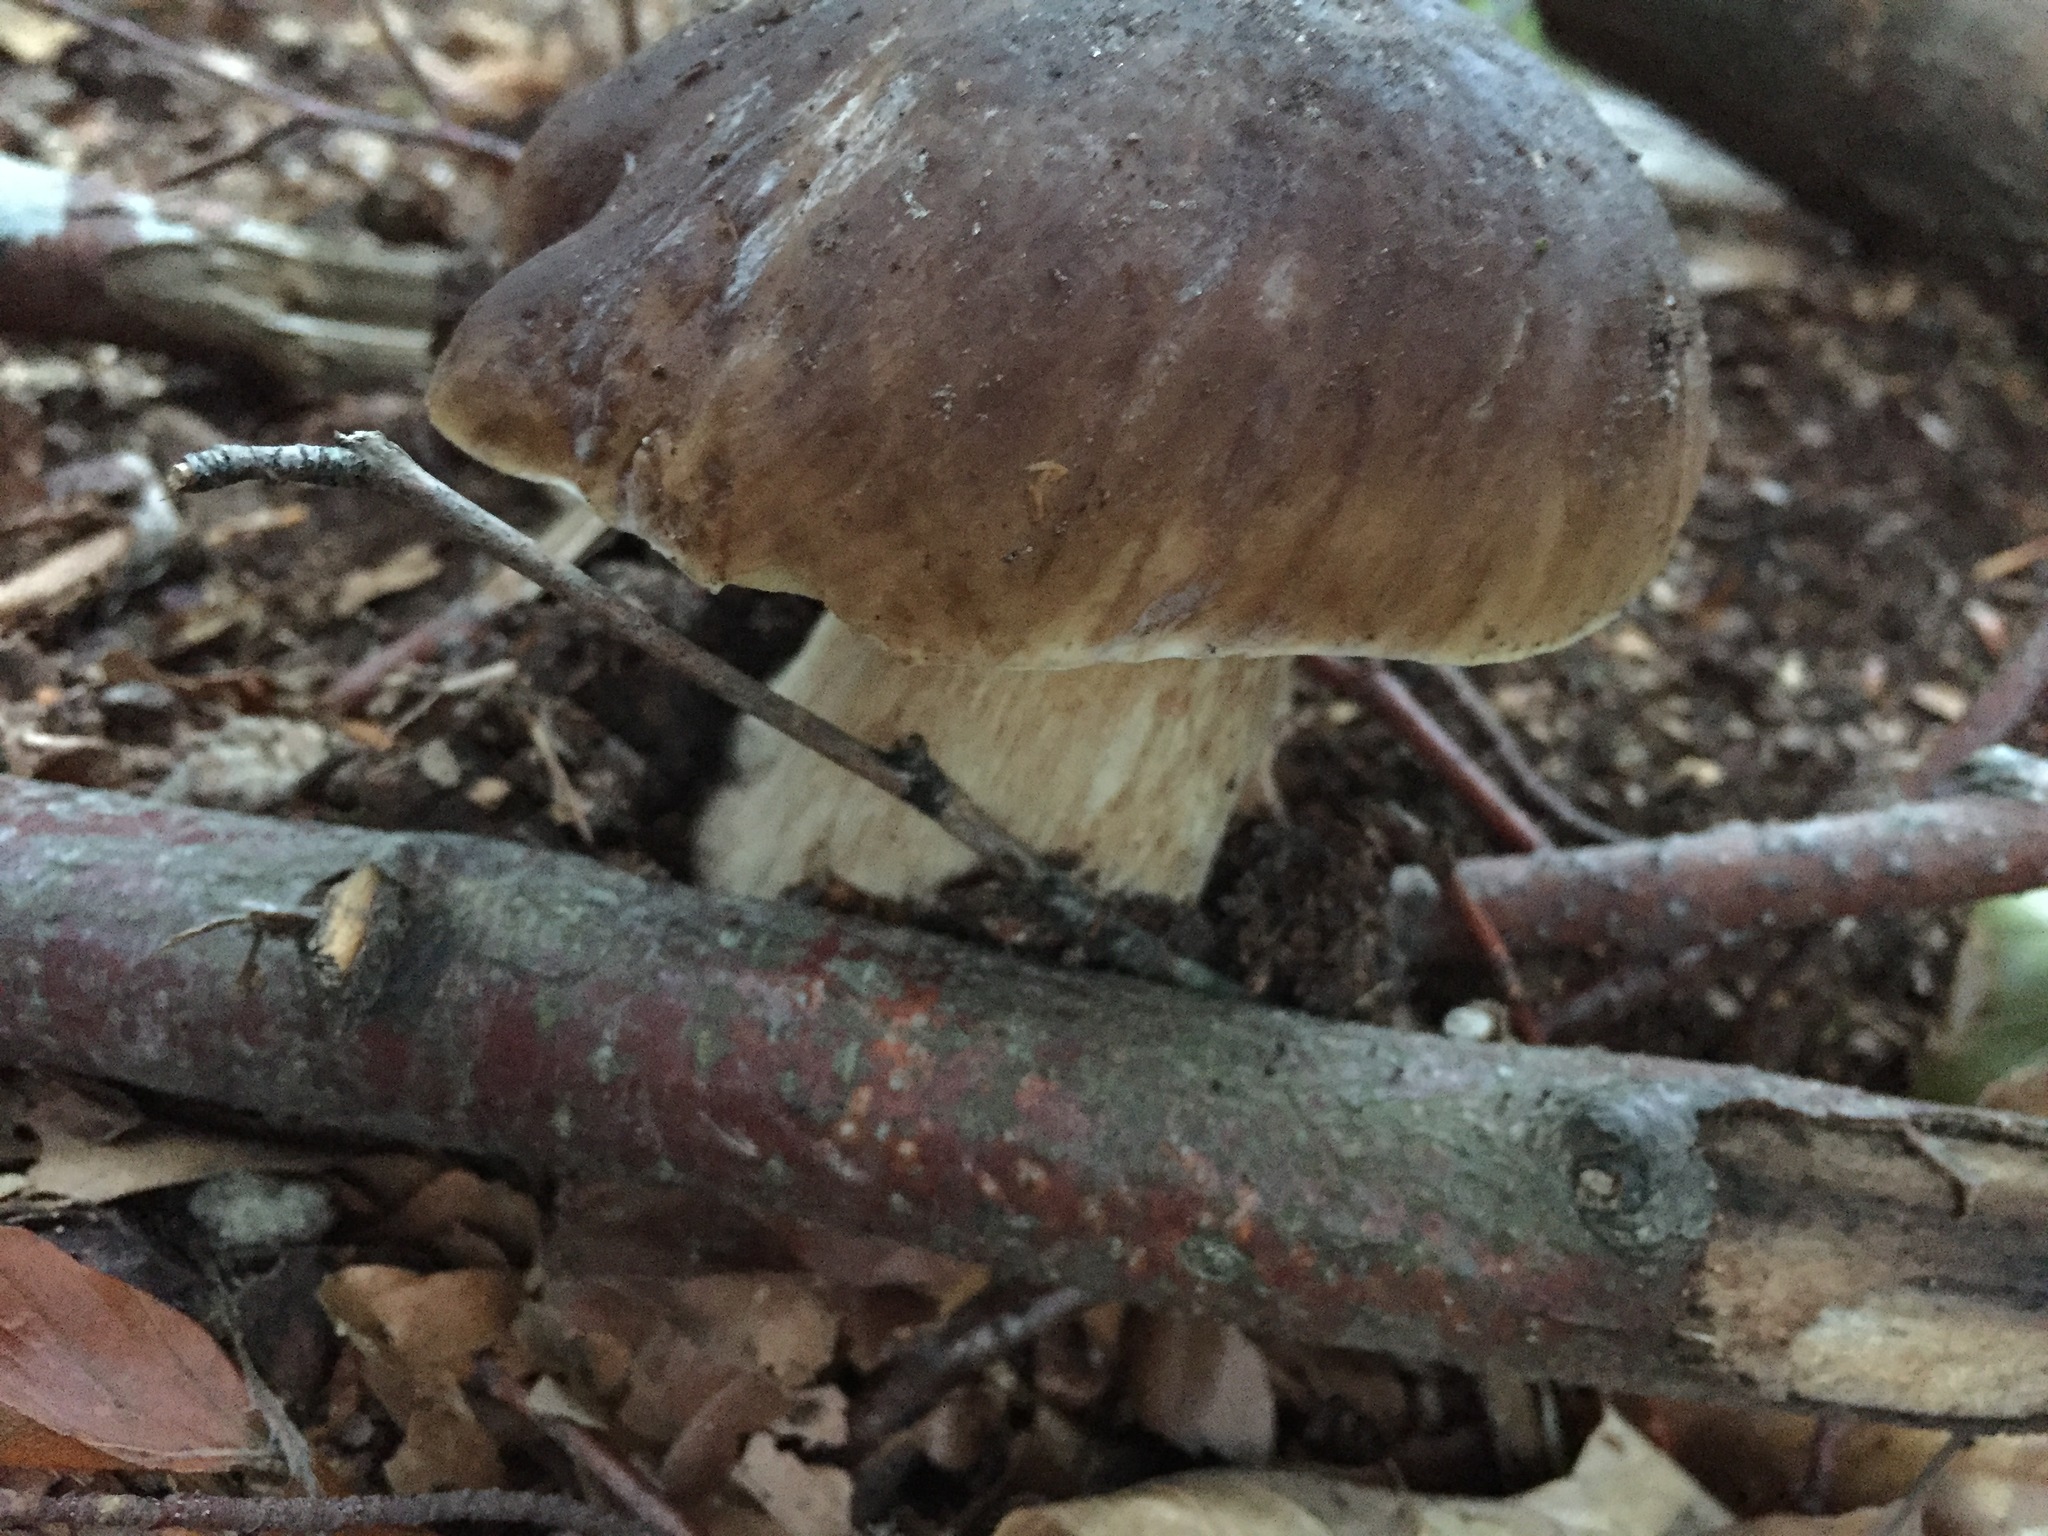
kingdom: Fungi
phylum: Basidiomycota
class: Agaricomycetes
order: Boletales
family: Boletaceae
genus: Boletus
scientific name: Boletus reticulatus
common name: Summer bolete
